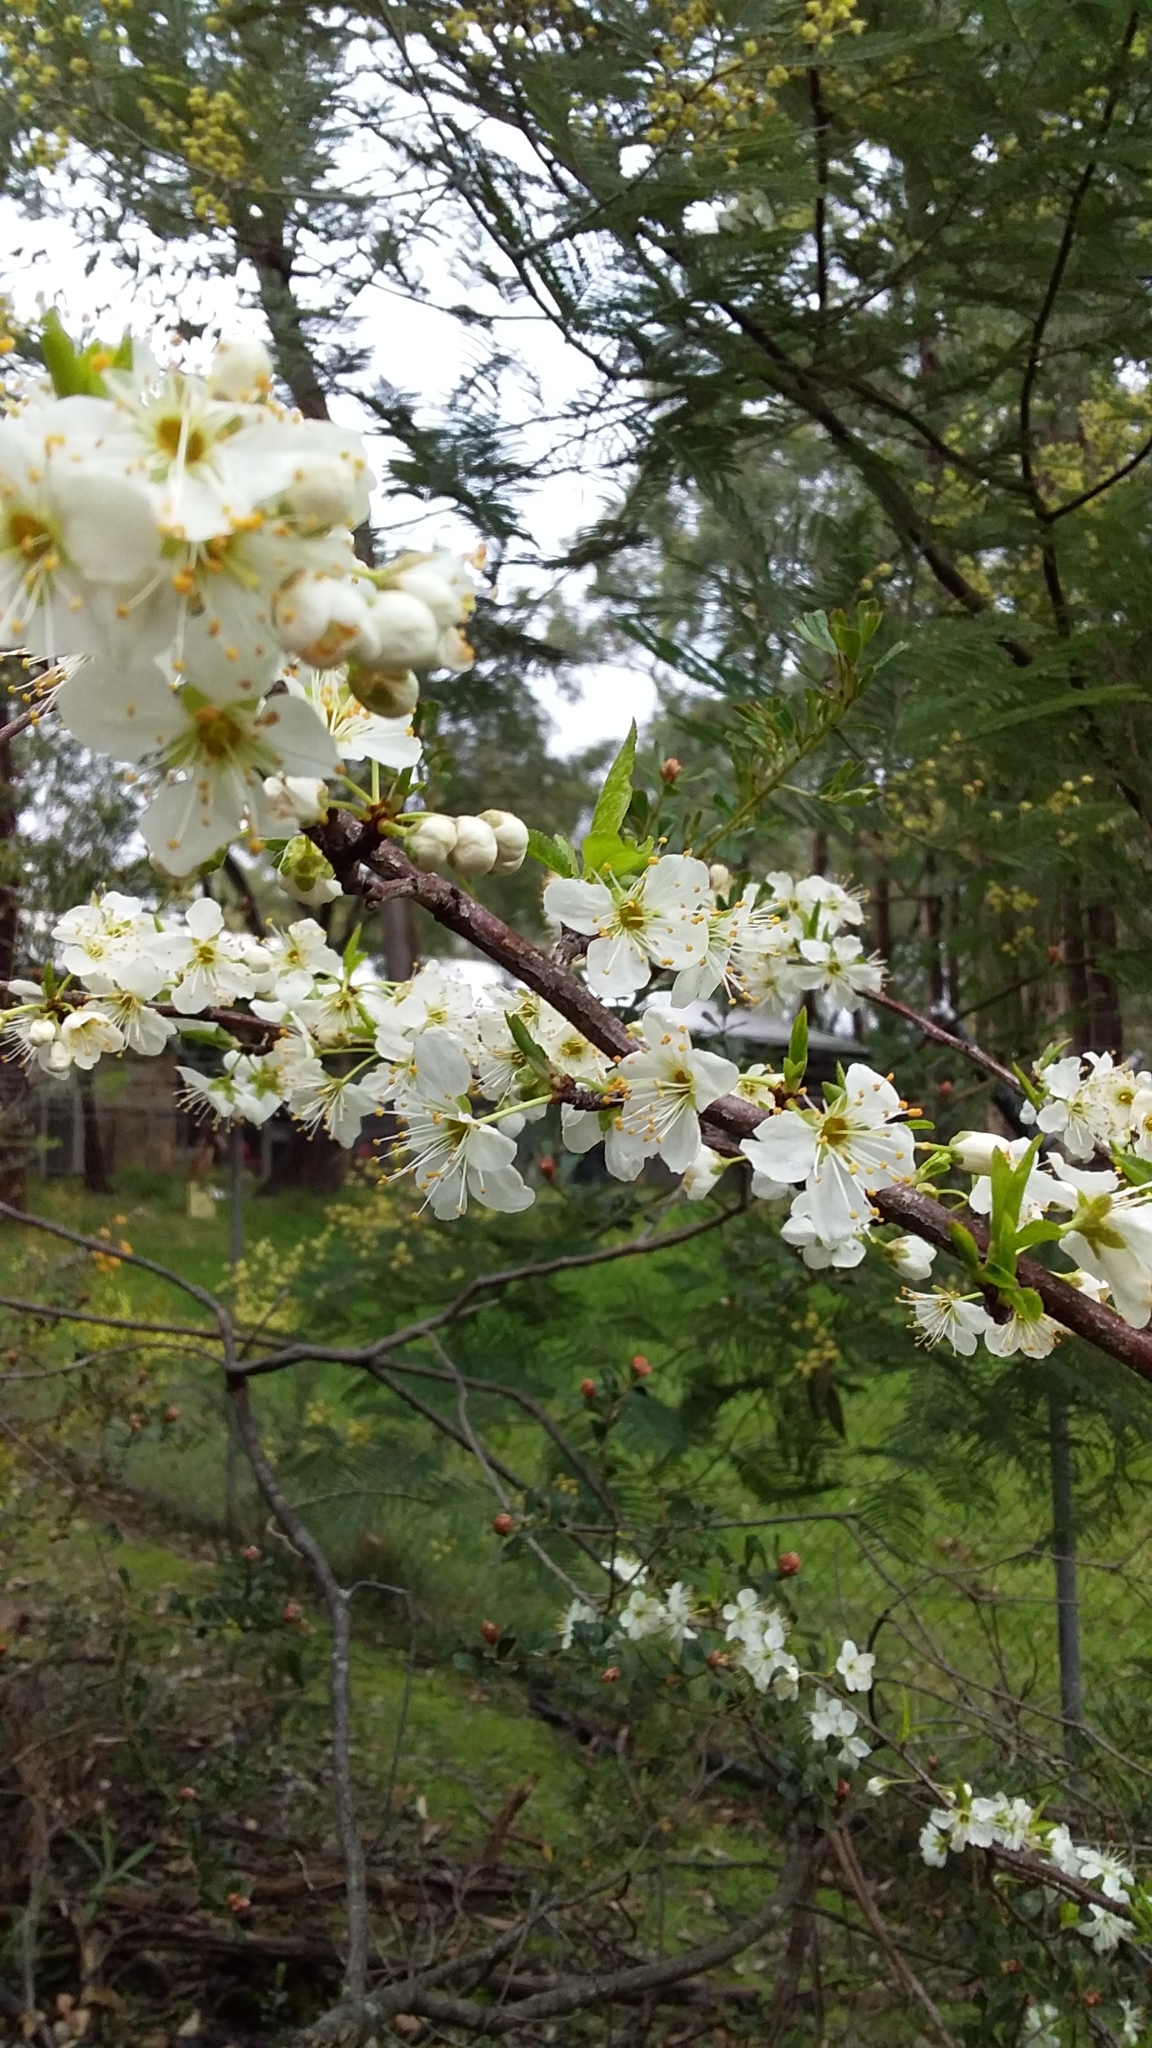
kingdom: Plantae
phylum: Tracheophyta
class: Magnoliopsida
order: Rosales
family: Rosaceae
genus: Prunus
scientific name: Prunus cerasifera
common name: Cherry plum
